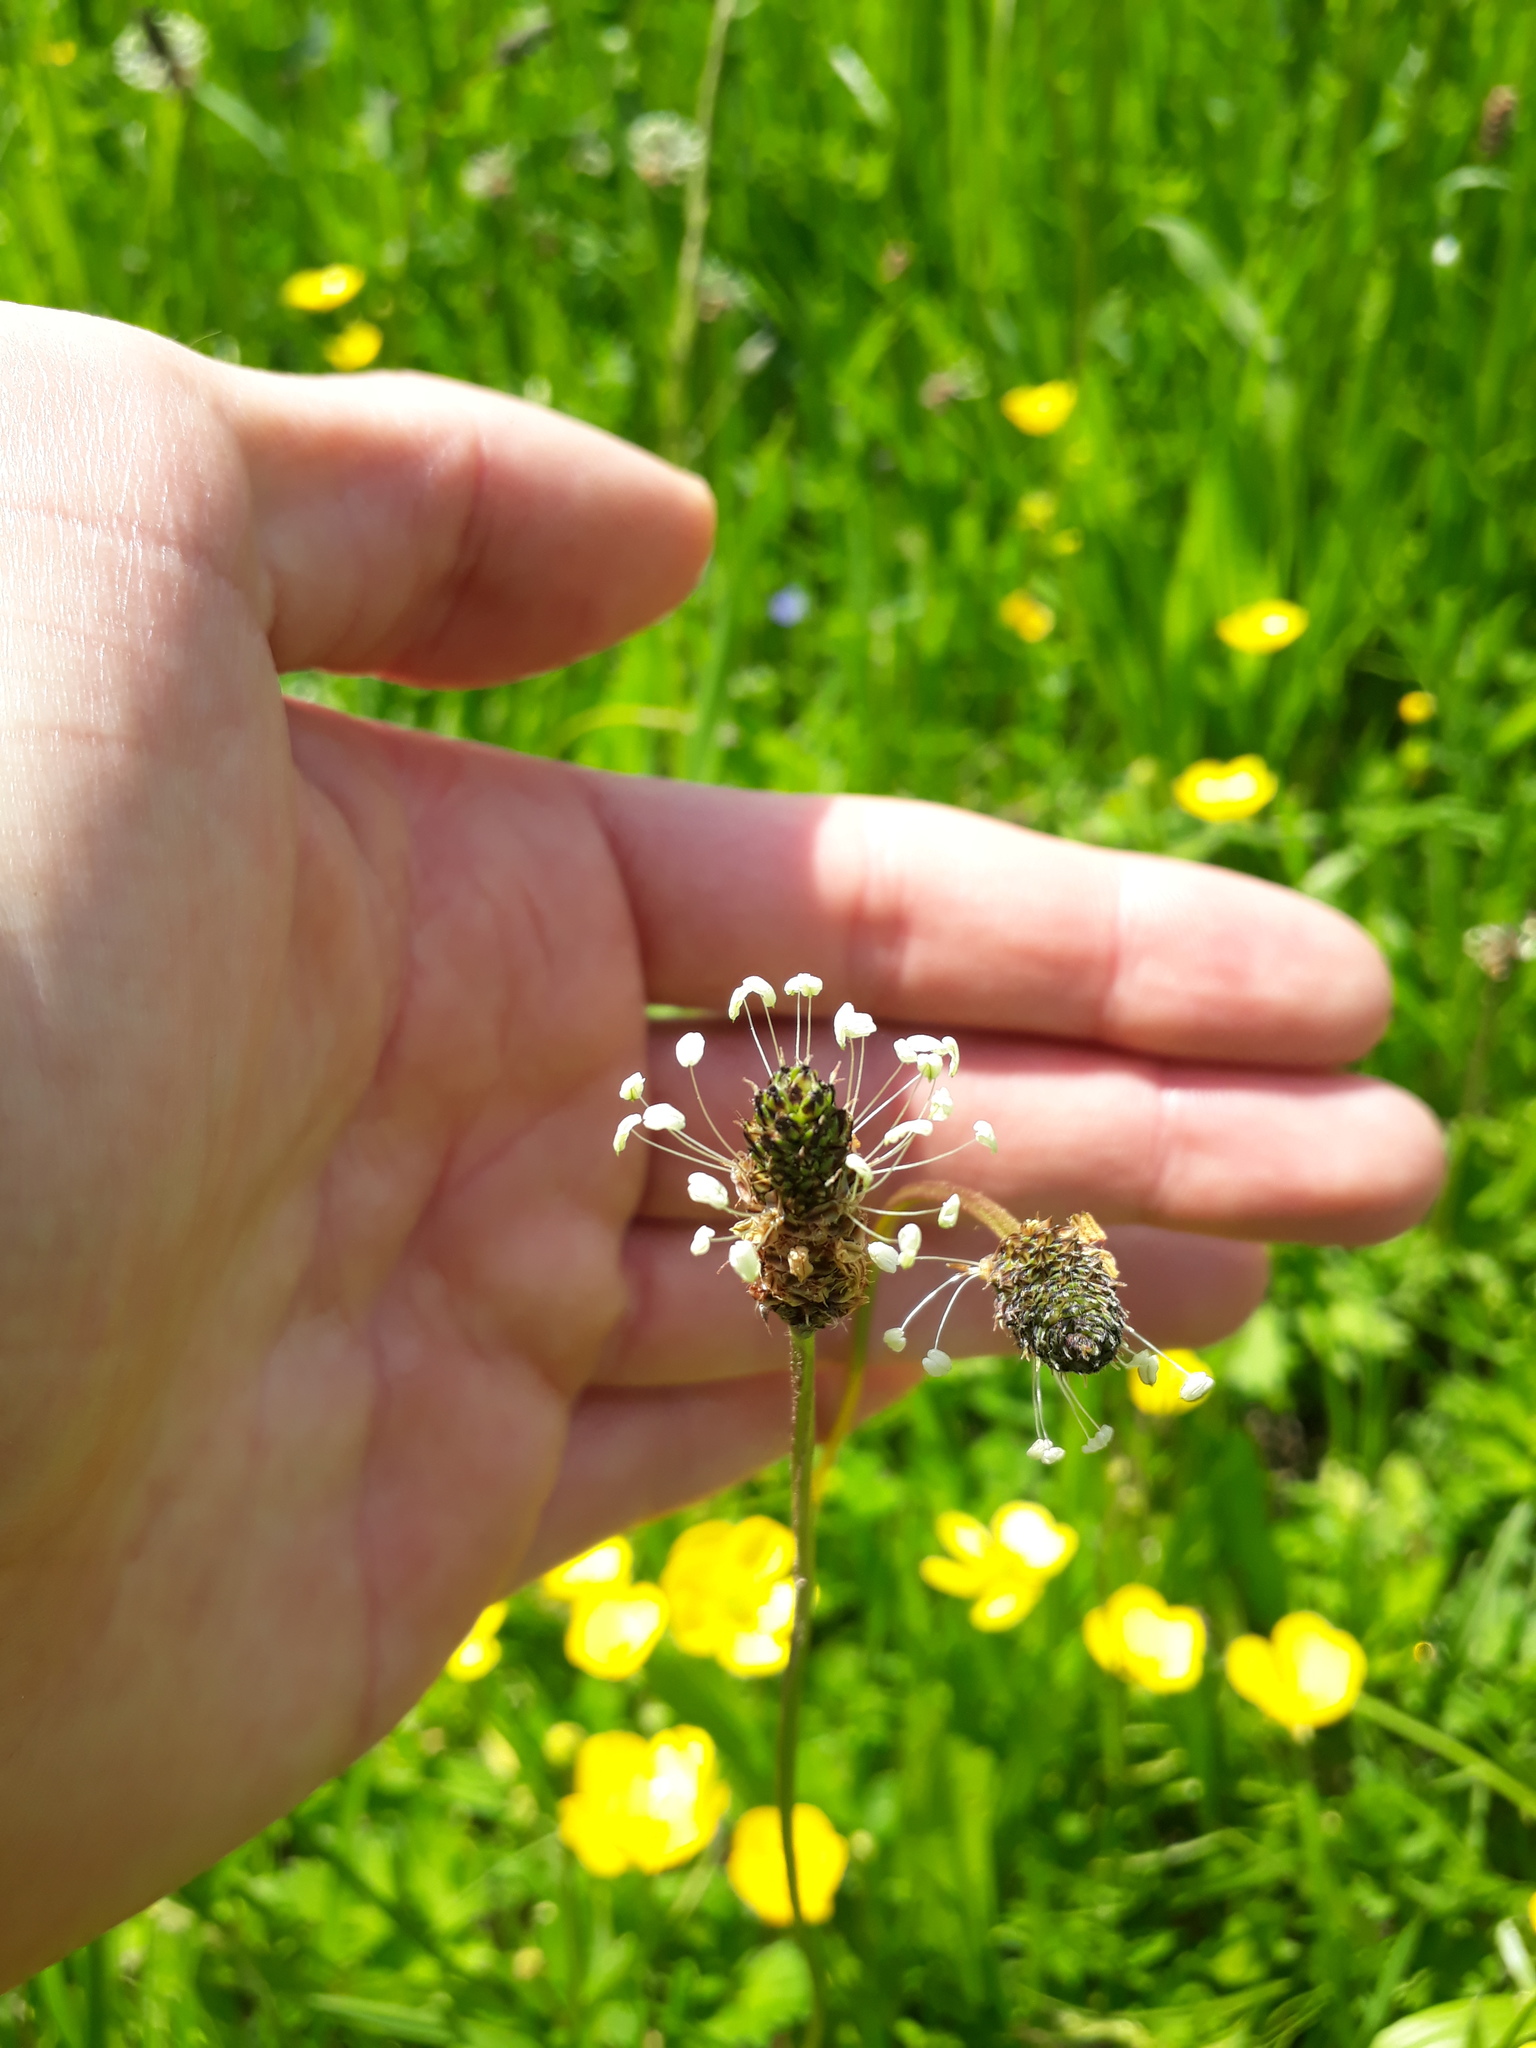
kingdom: Plantae
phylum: Tracheophyta
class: Magnoliopsida
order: Lamiales
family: Plantaginaceae
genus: Plantago
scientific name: Plantago lanceolata
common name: Ribwort plantain
